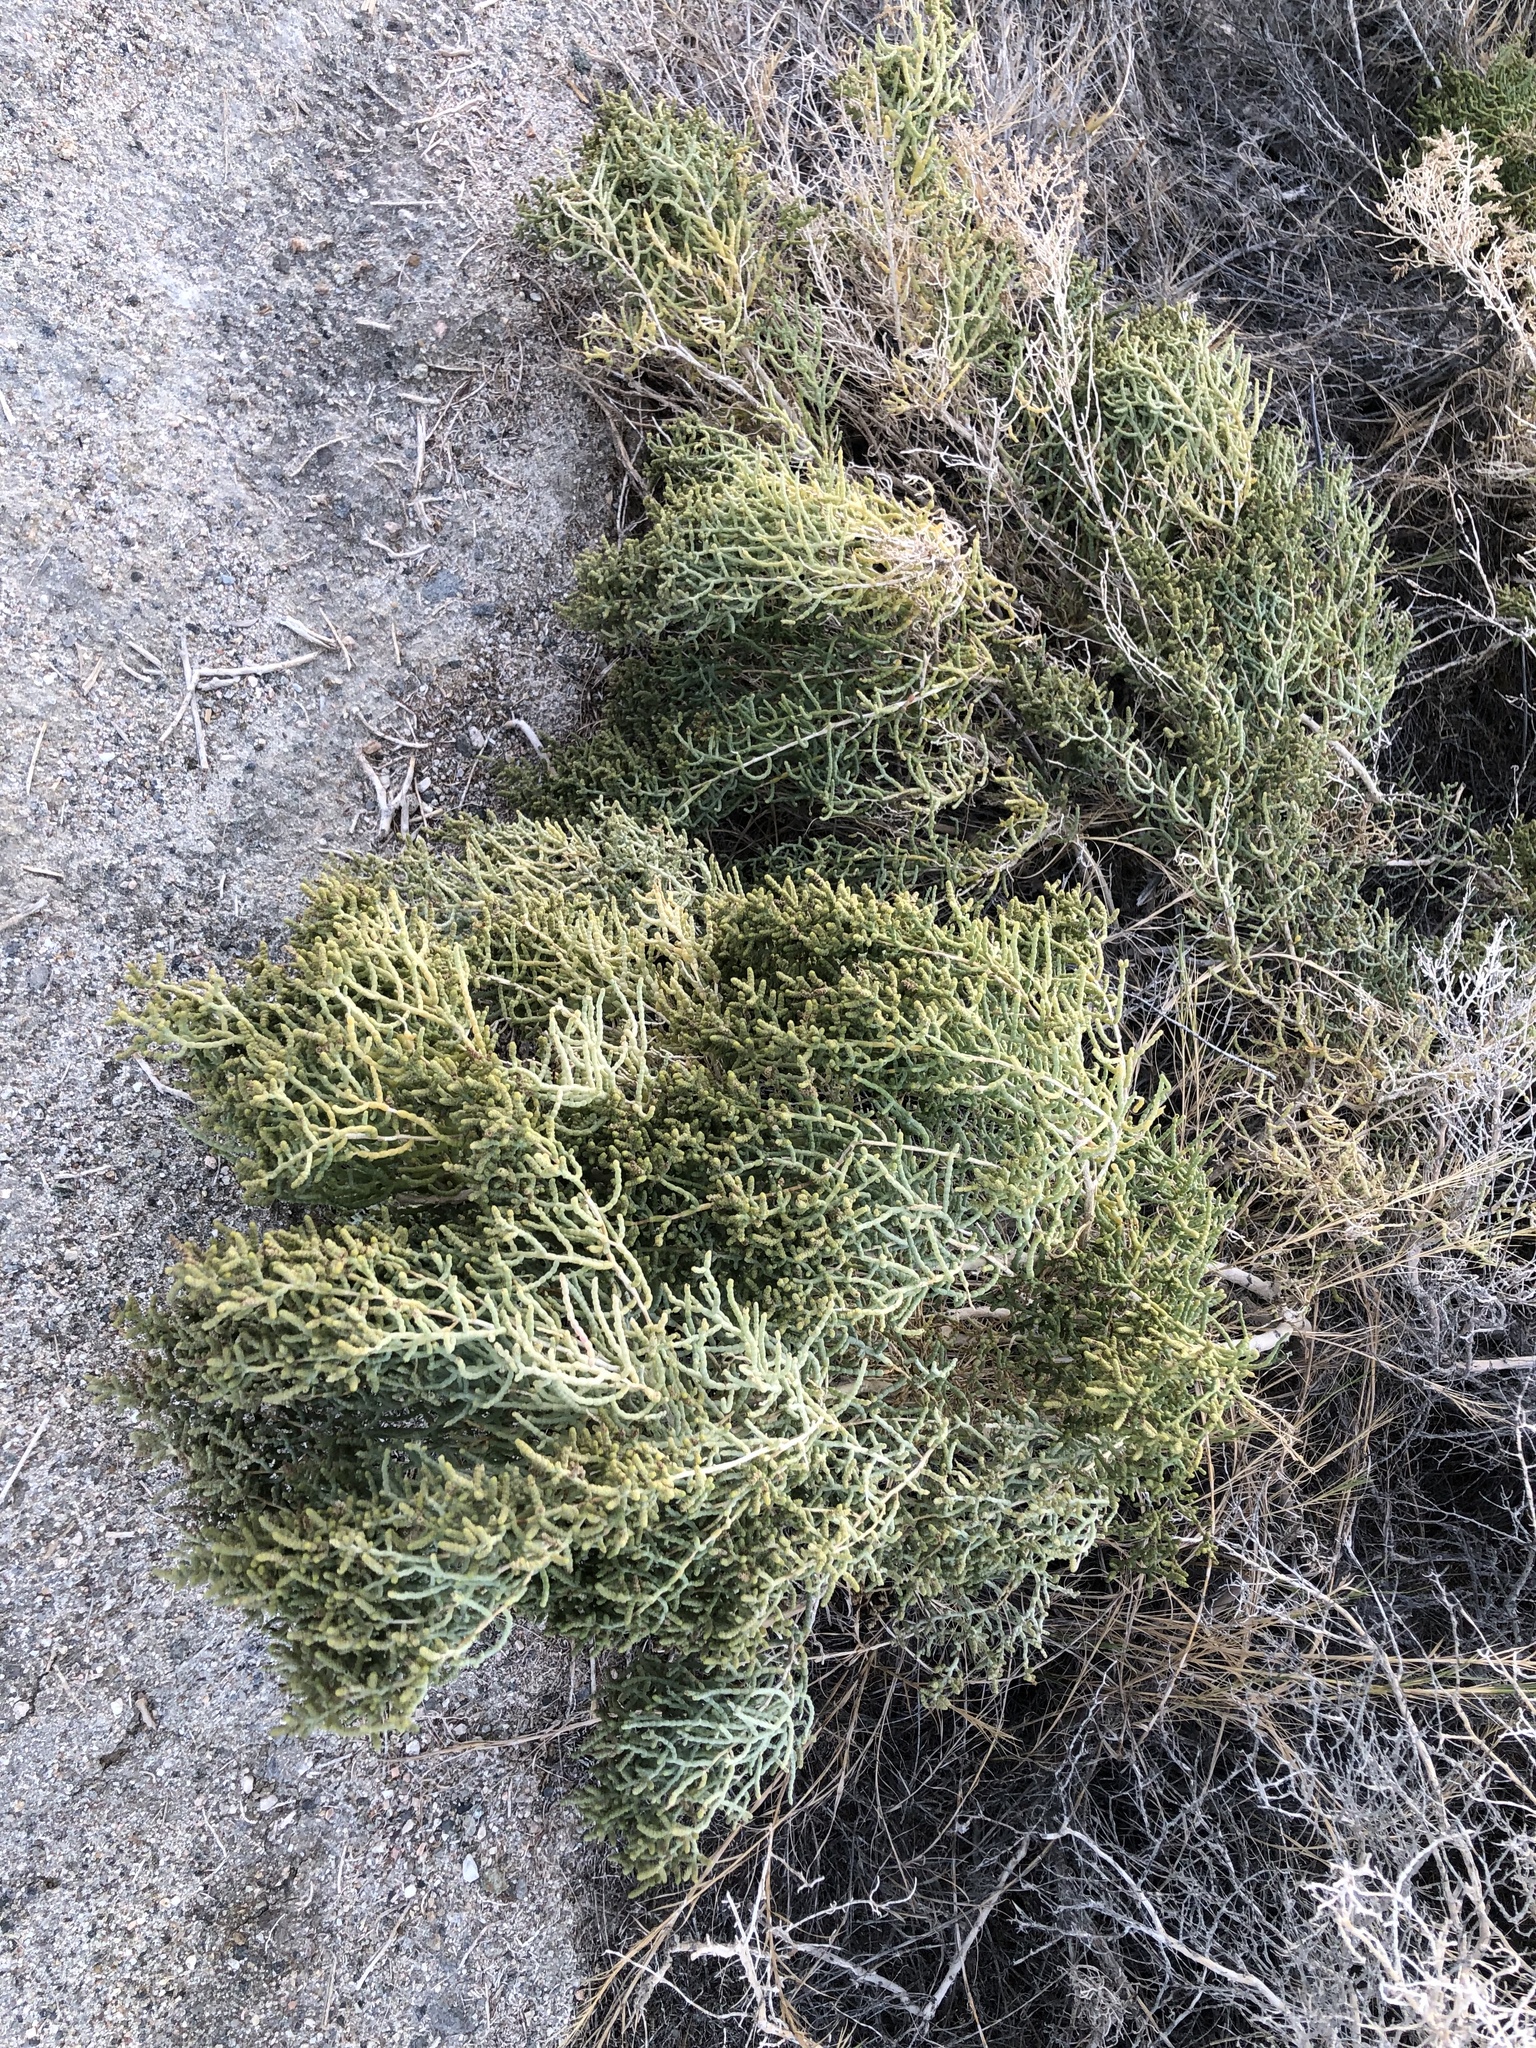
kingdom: Plantae
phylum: Tracheophyta
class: Magnoliopsida
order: Caryophyllales
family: Amaranthaceae
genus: Allenrolfea
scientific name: Allenrolfea occidentalis
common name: Iodine-bush
